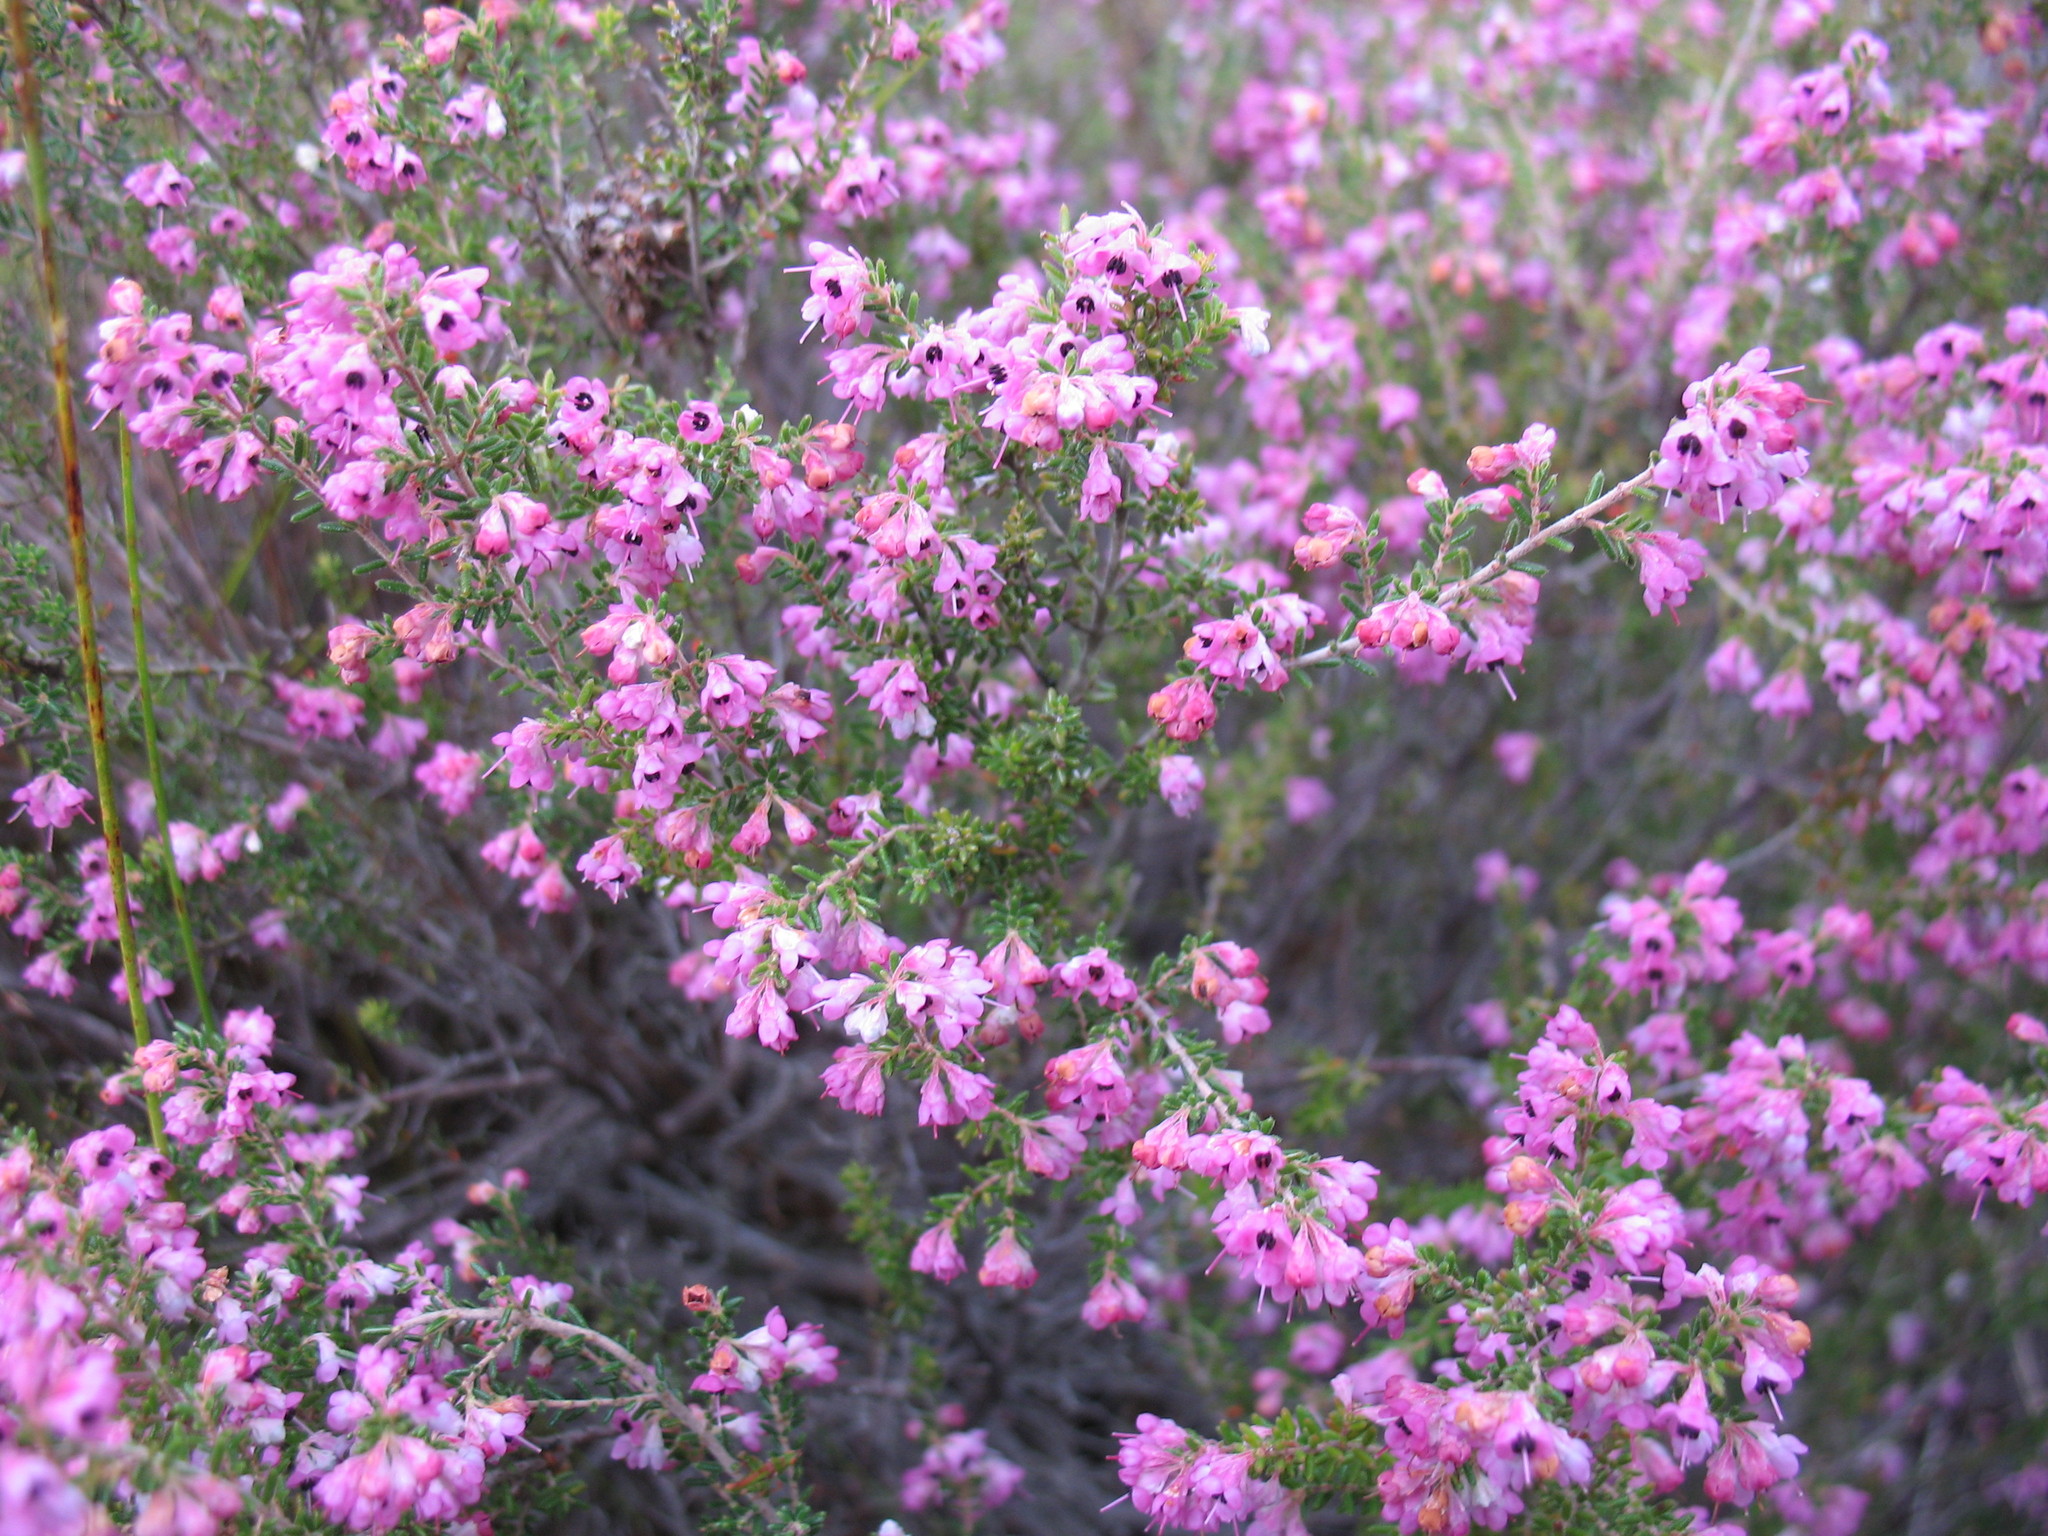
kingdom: Plantae
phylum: Tracheophyta
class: Magnoliopsida
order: Ericales
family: Ericaceae
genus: Erica
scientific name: Erica melanthera
